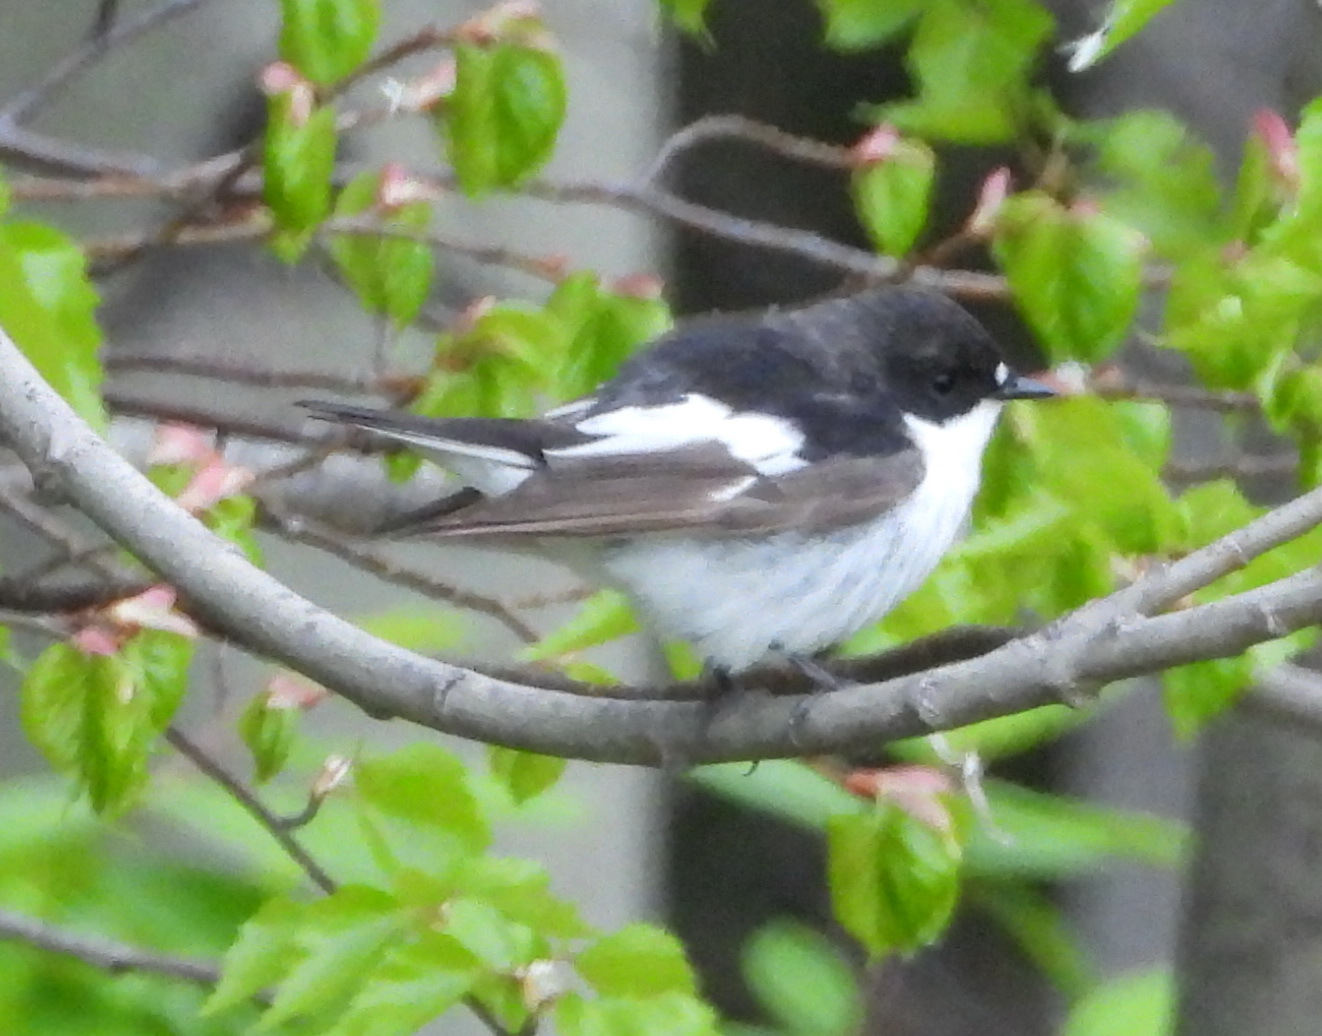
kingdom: Animalia
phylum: Chordata
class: Aves
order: Passeriformes
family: Muscicapidae
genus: Ficedula
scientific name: Ficedula hypoleuca
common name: European pied flycatcher
